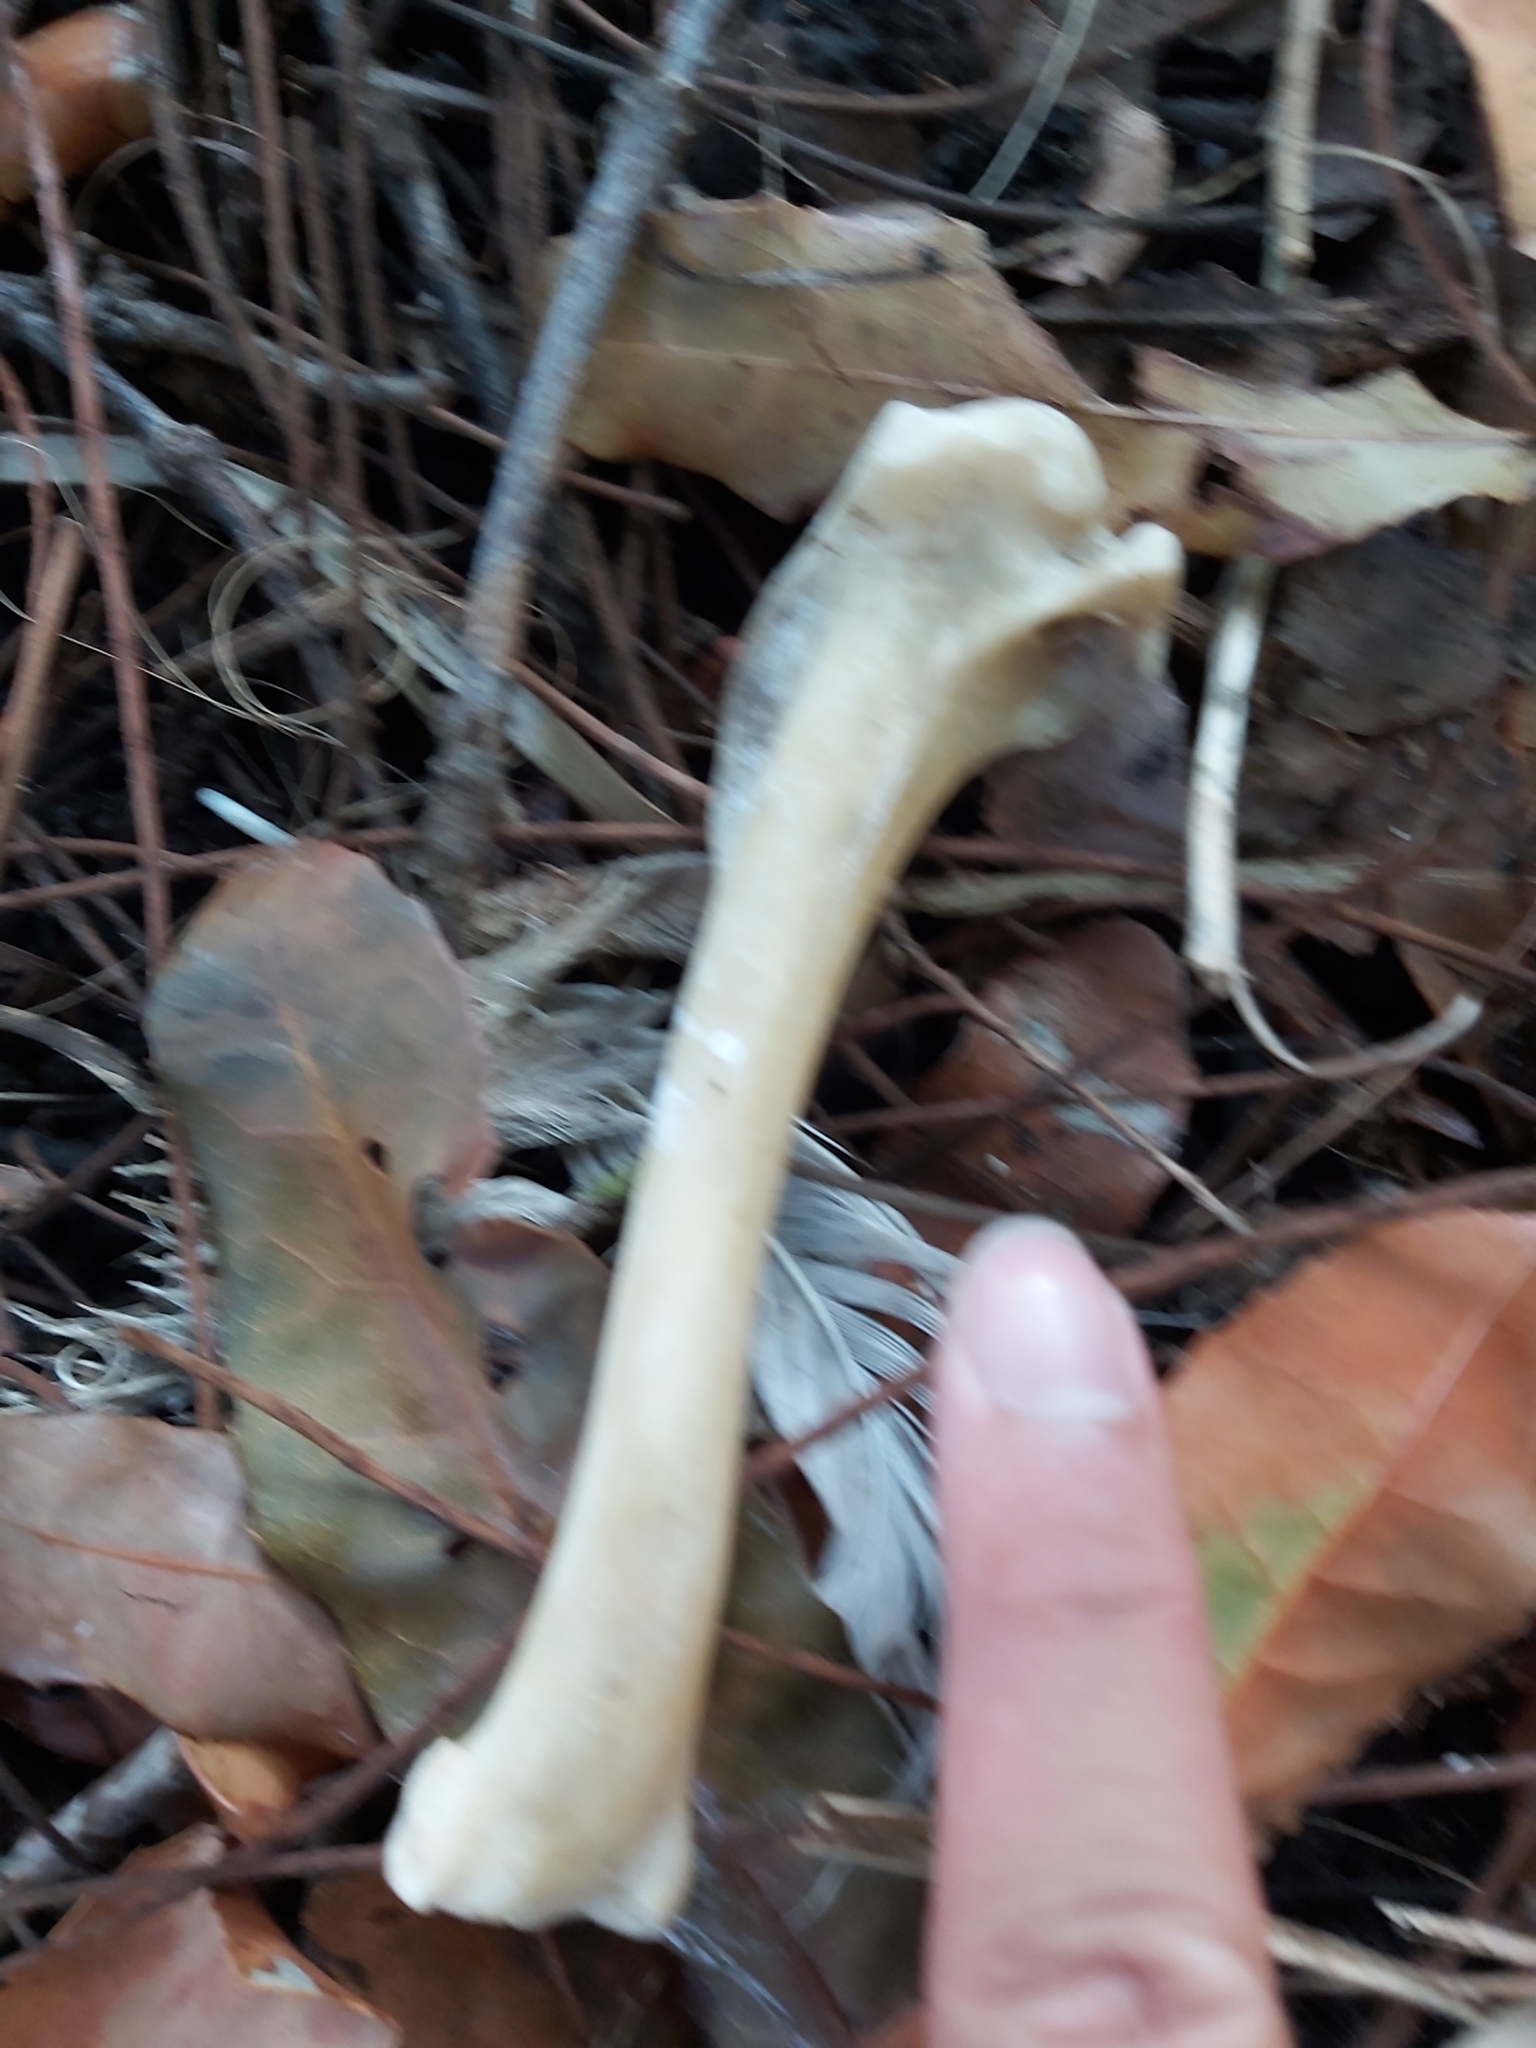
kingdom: Animalia
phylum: Chordata
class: Aves
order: Pelecaniformes
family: Threskiornithidae
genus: Threskiornis
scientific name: Threskiornis molucca
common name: Australian white ibis
